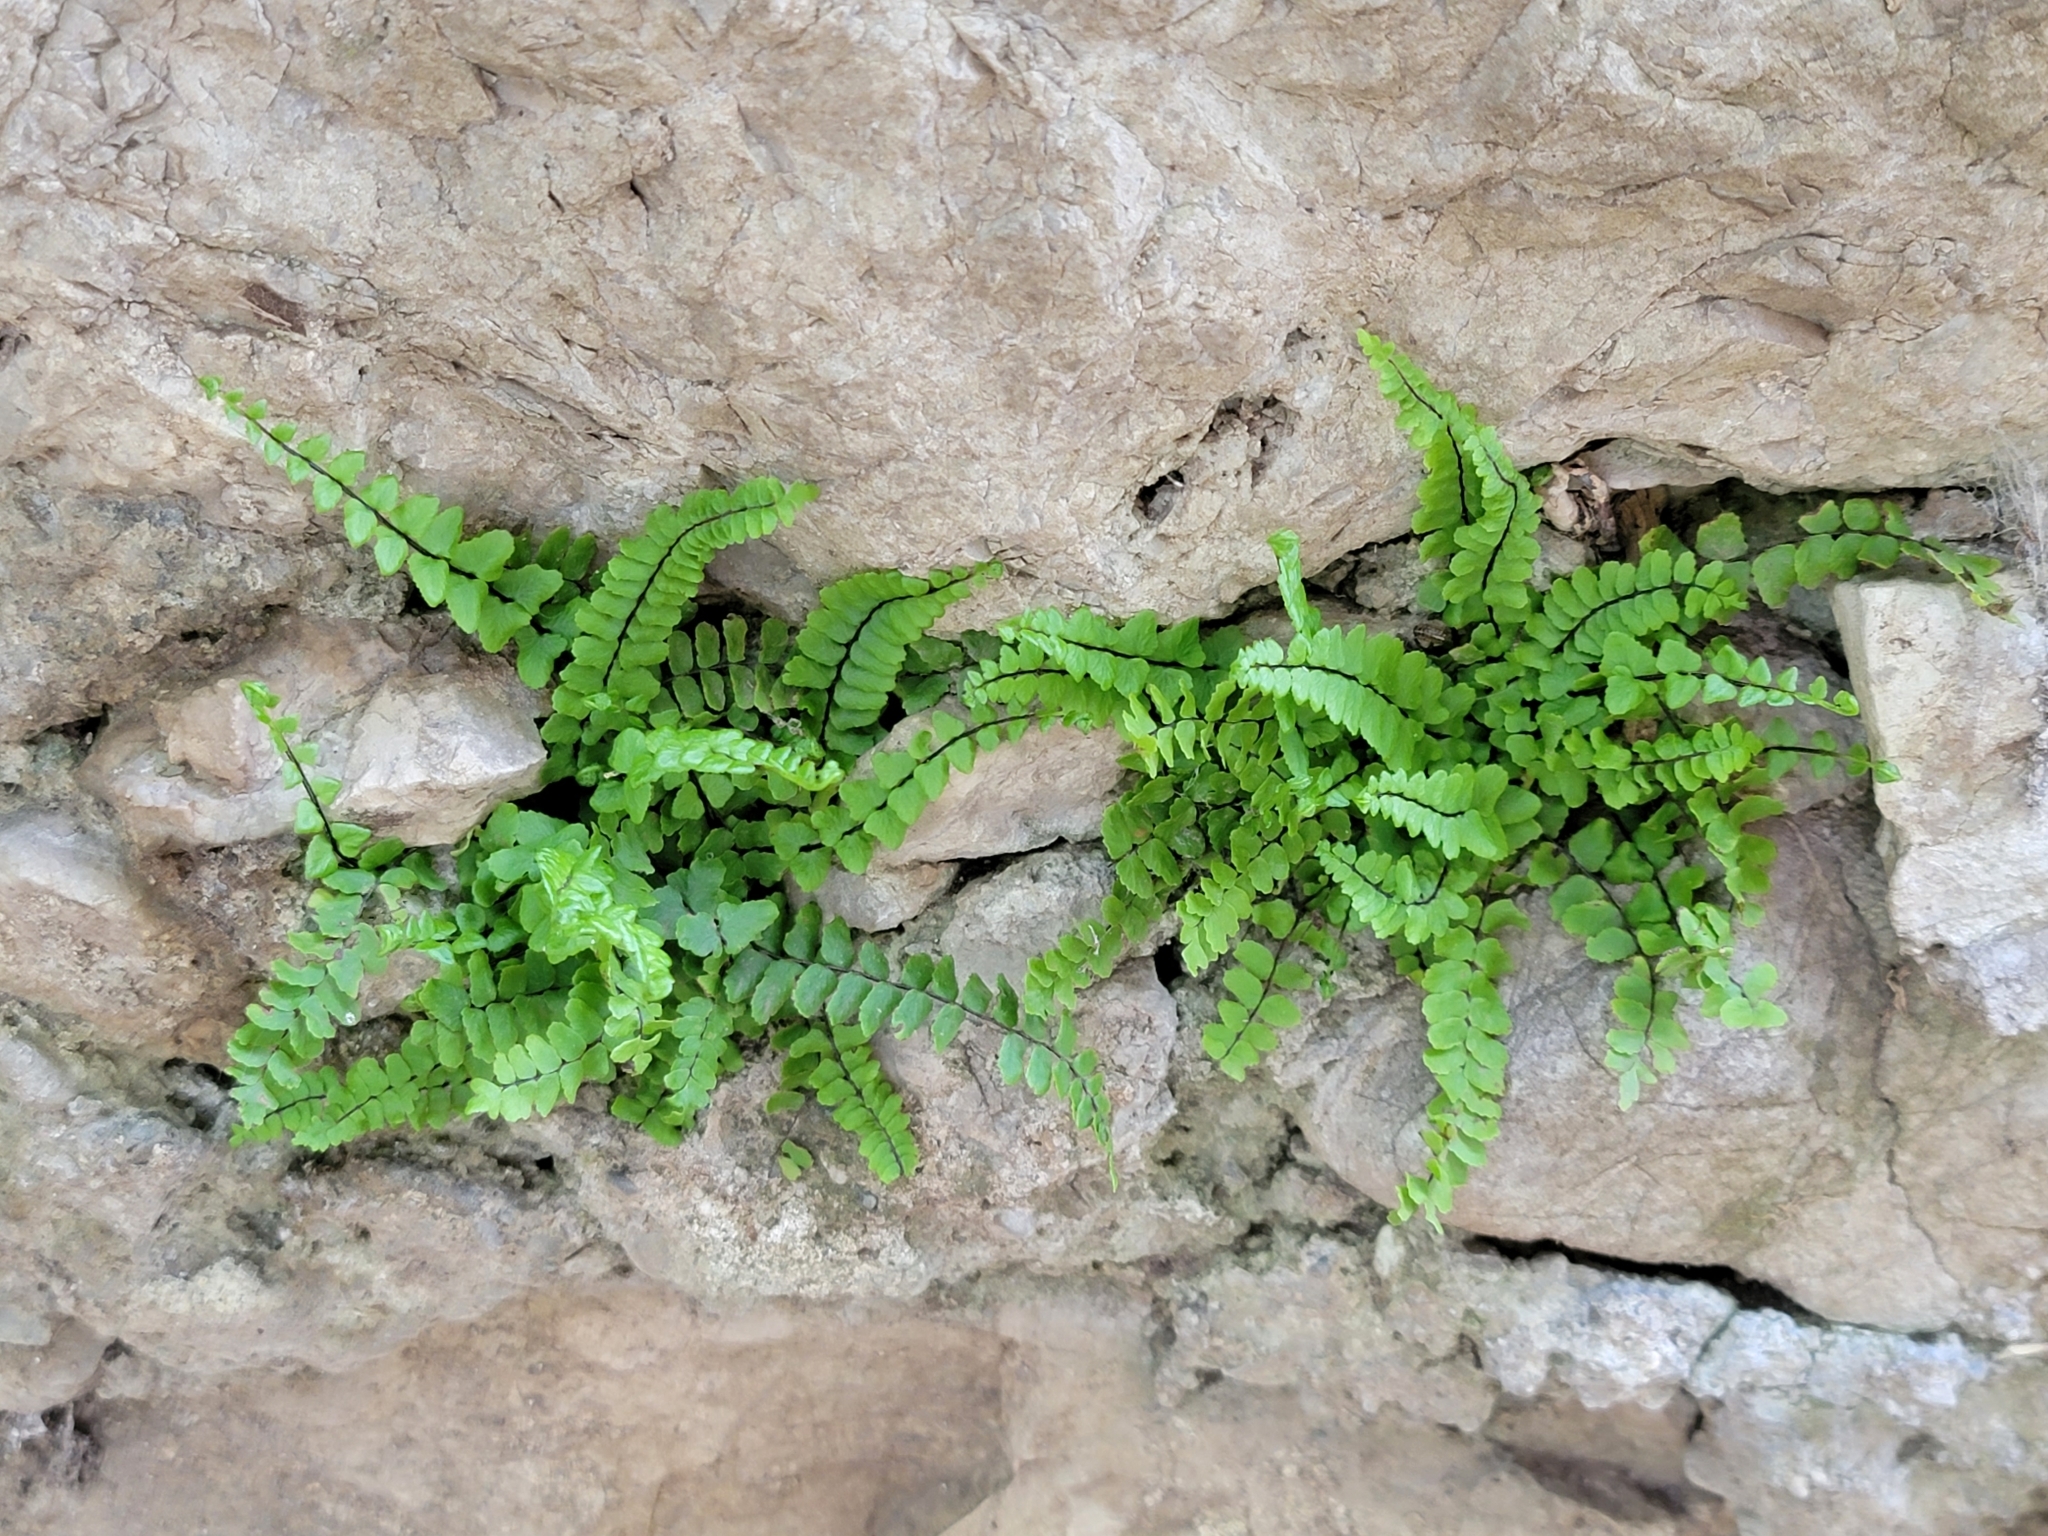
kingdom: Plantae
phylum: Tracheophyta
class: Polypodiopsida
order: Polypodiales
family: Aspleniaceae
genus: Asplenium
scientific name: Asplenium trichomanes
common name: Maidenhair spleenwort
